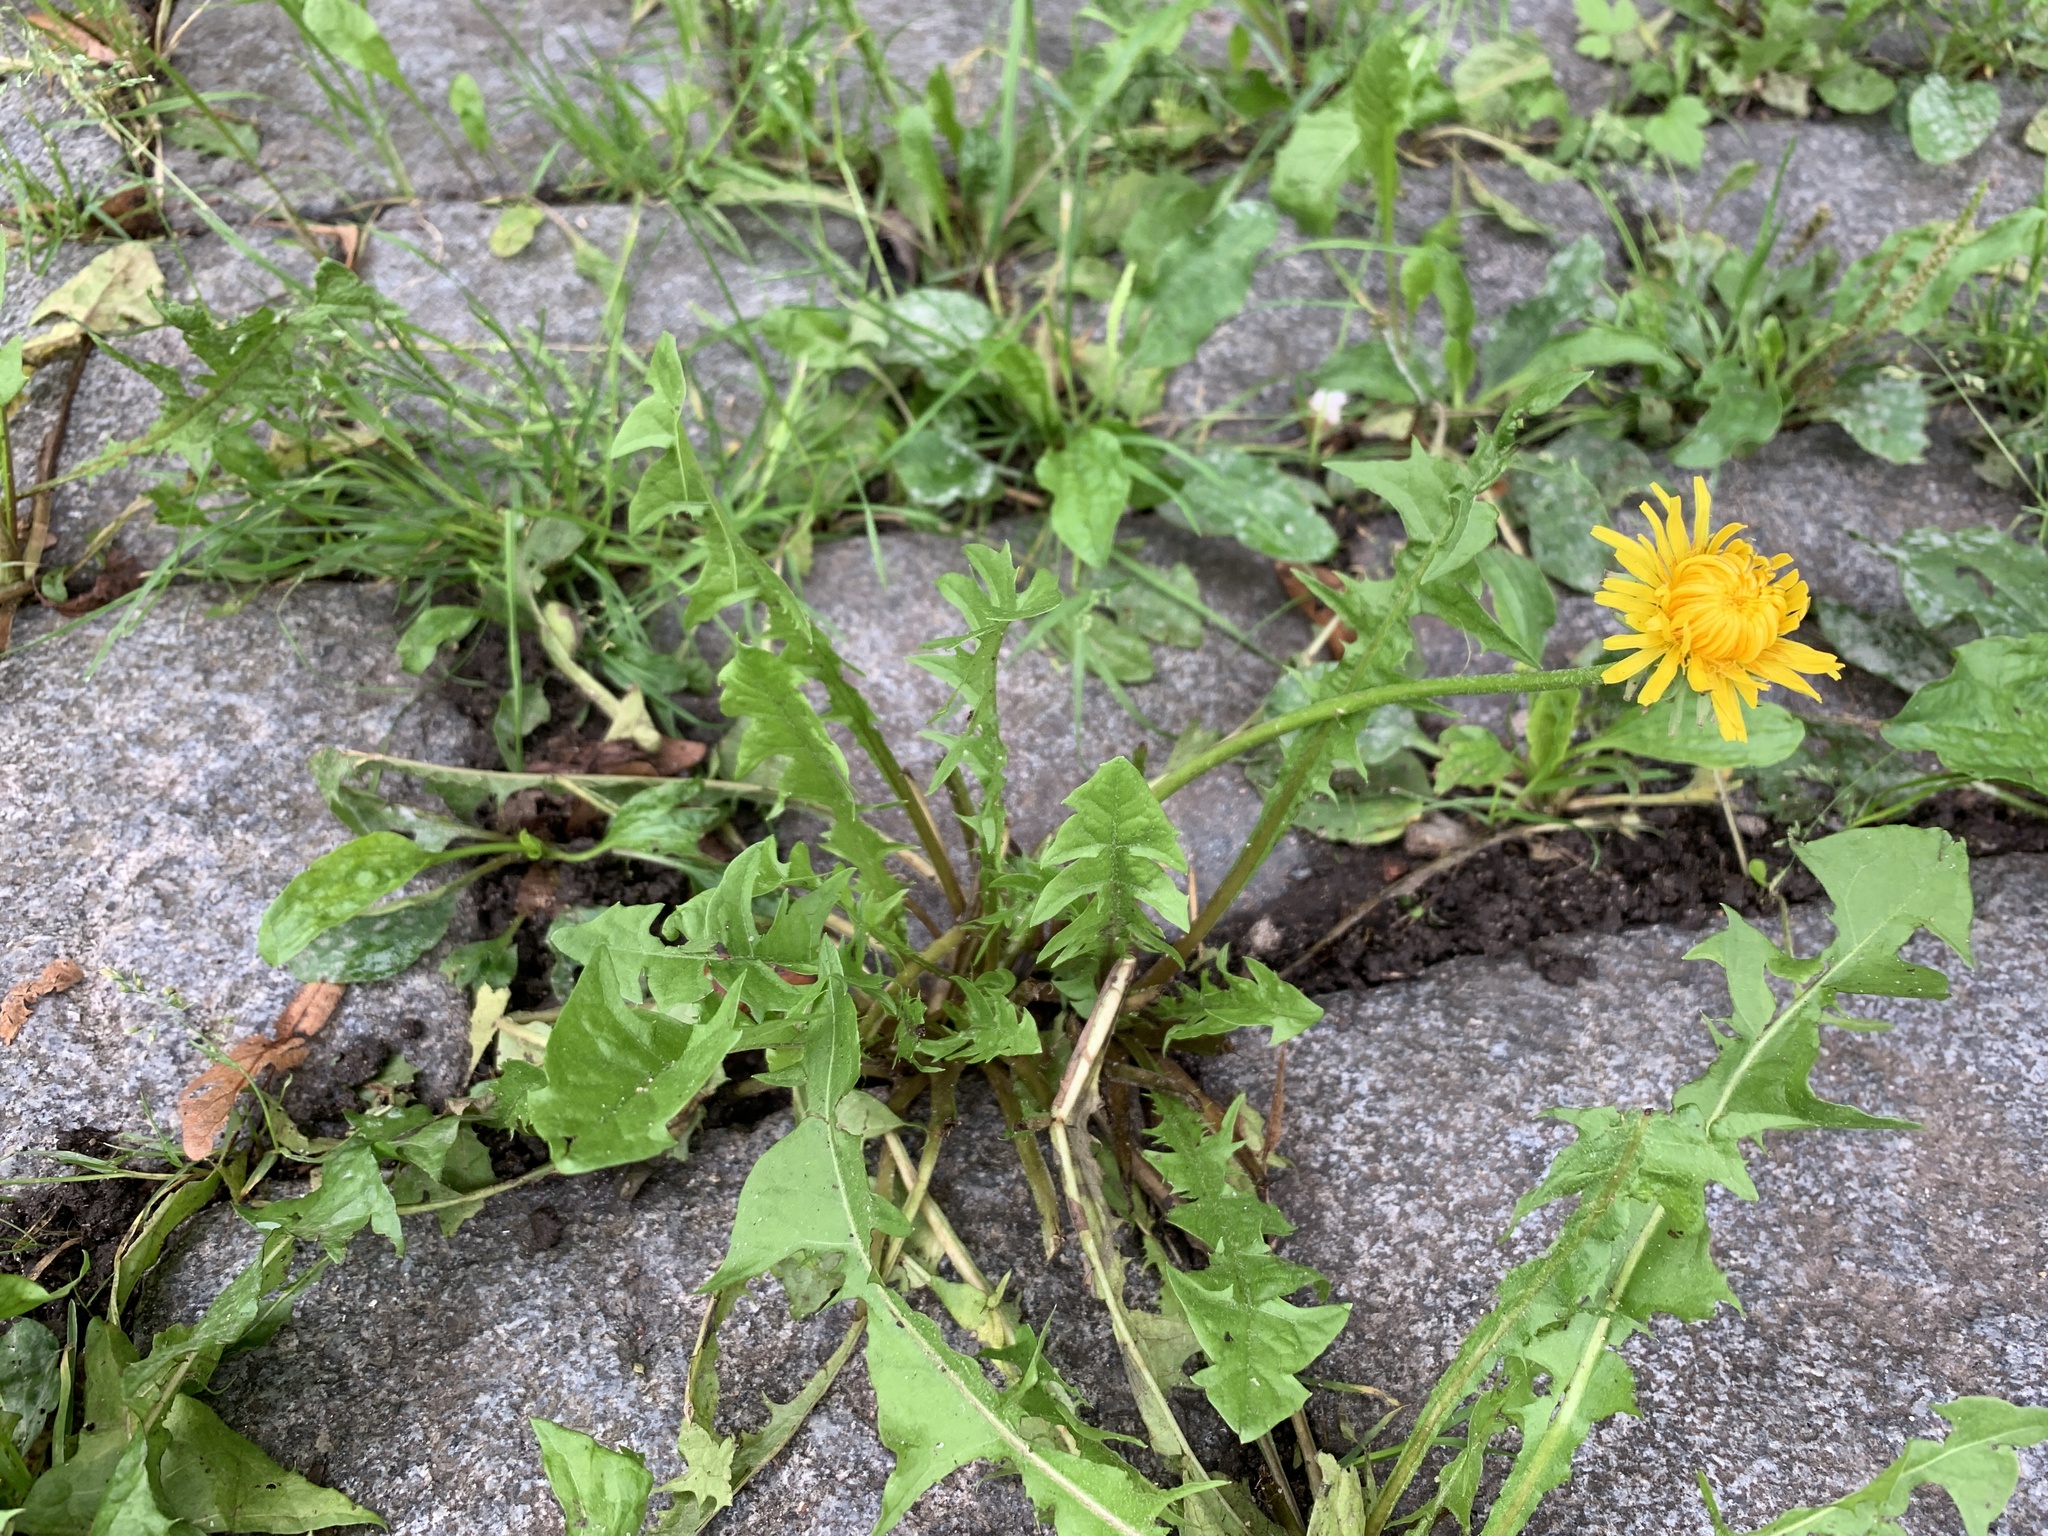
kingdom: Plantae
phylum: Tracheophyta
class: Magnoliopsida
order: Asterales
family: Asteraceae
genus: Taraxacum
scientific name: Taraxacum officinale
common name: Common dandelion
